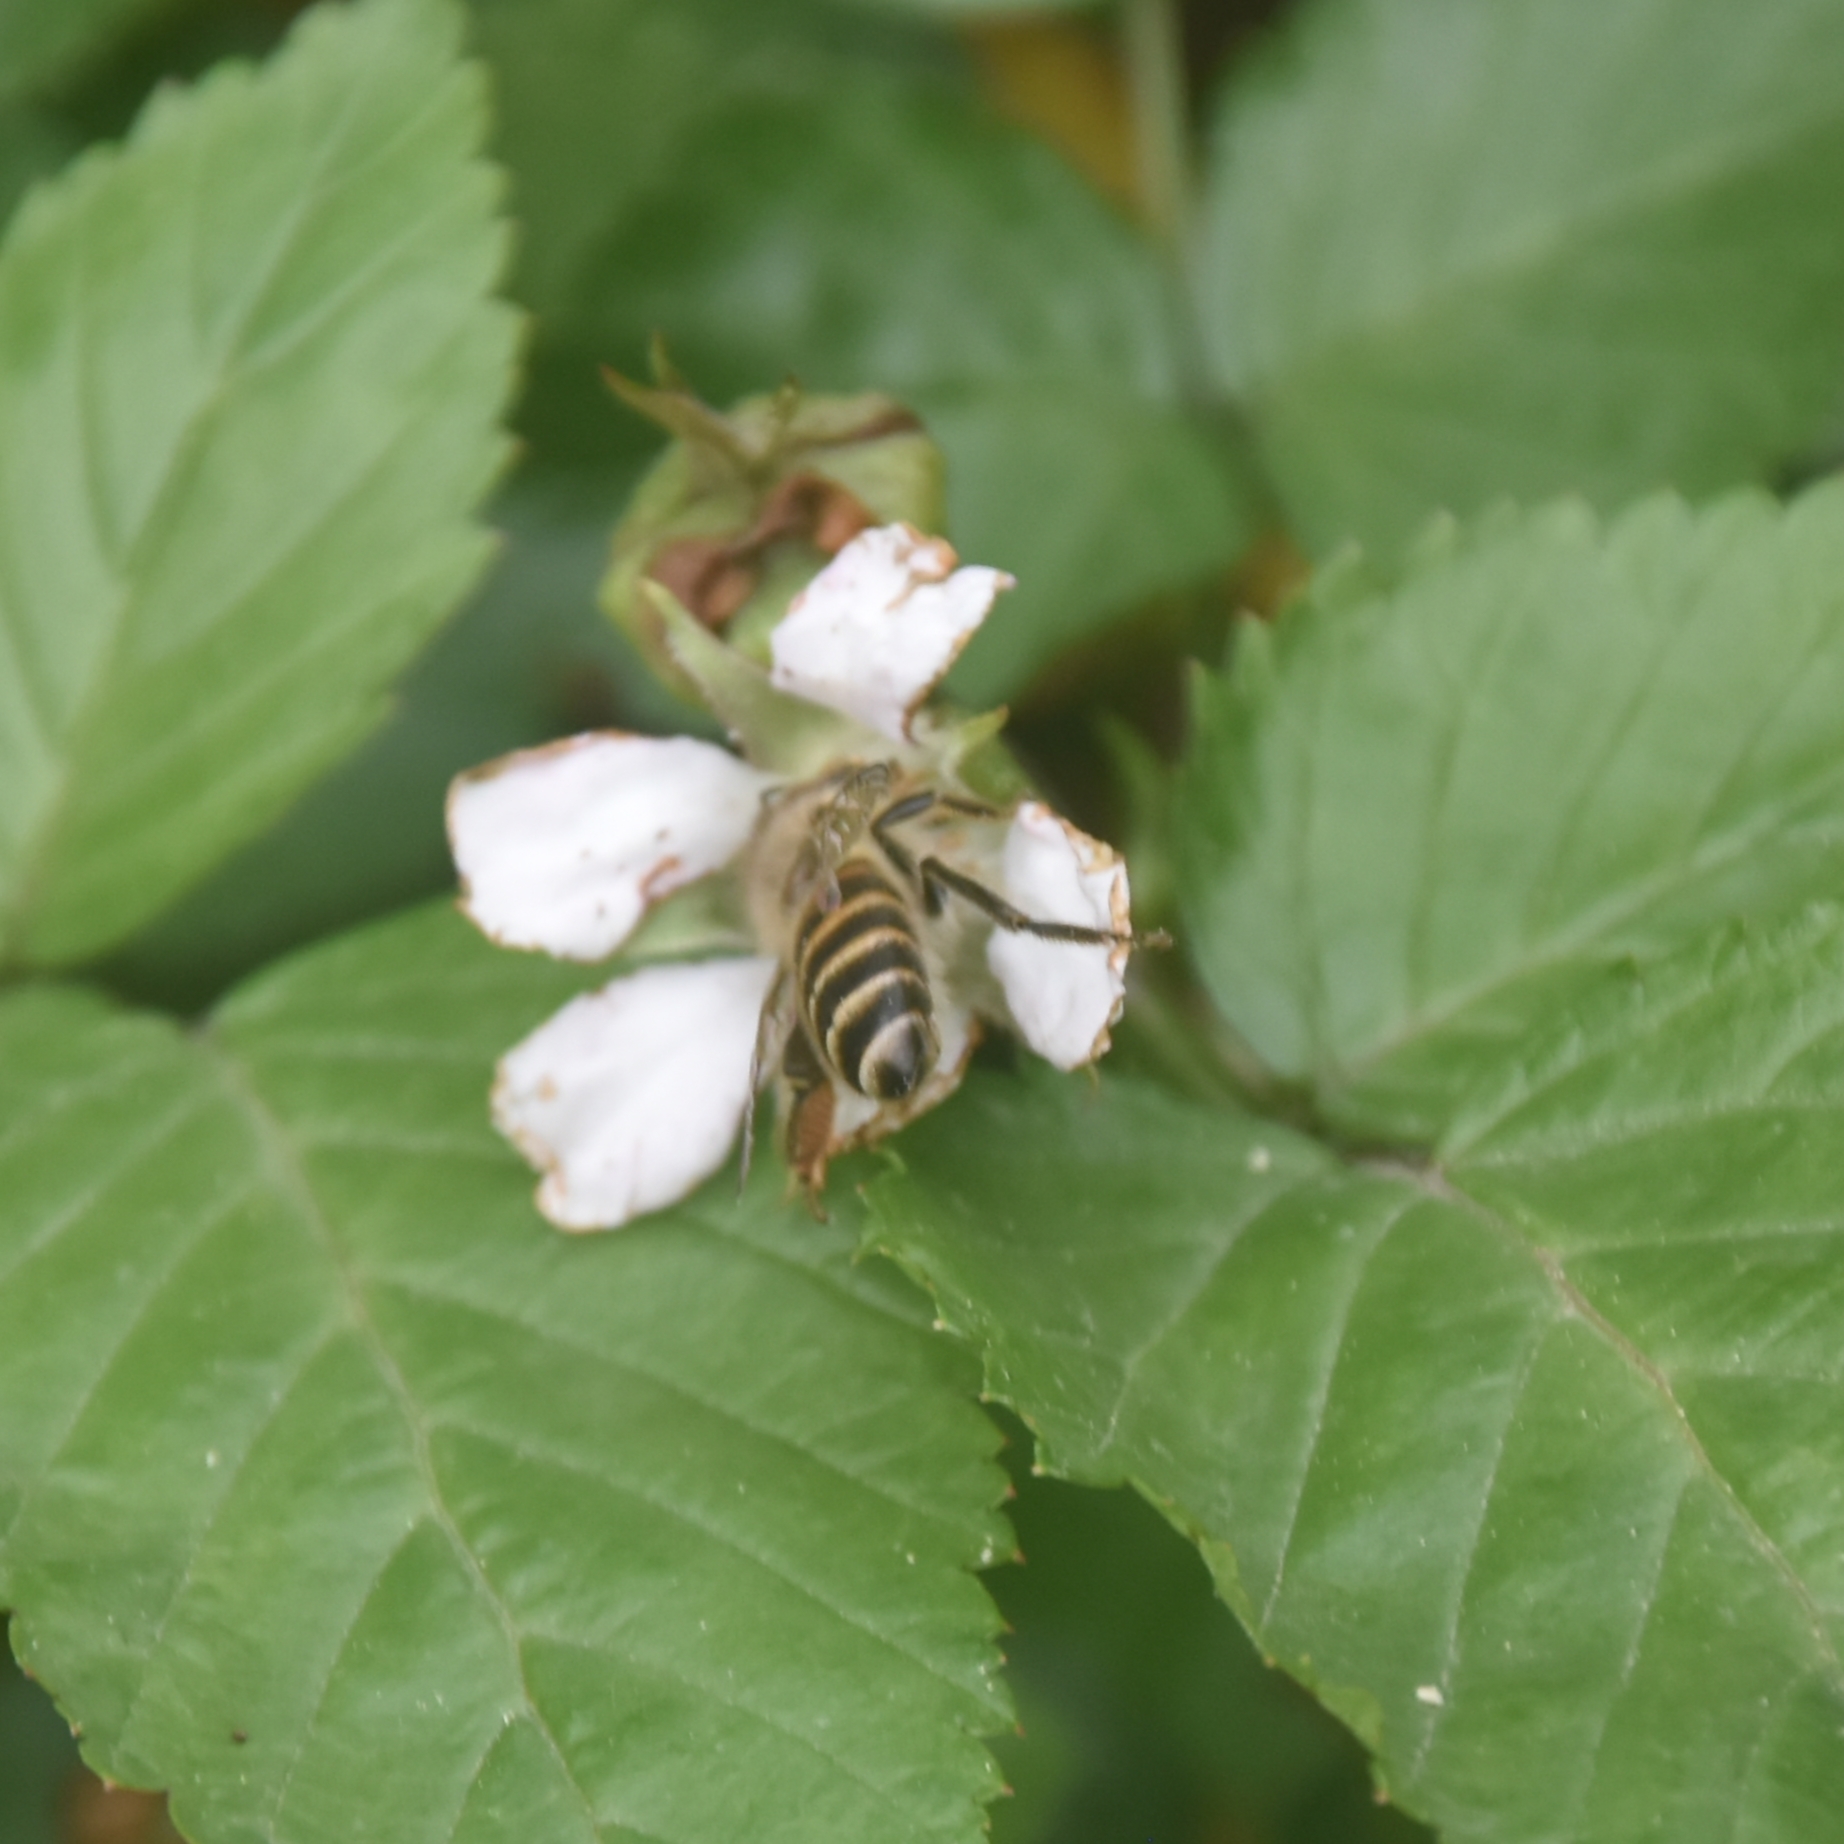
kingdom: Animalia
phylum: Arthropoda
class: Insecta
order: Hymenoptera
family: Apidae
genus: Apis
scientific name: Apis cerana
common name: Honey bee
